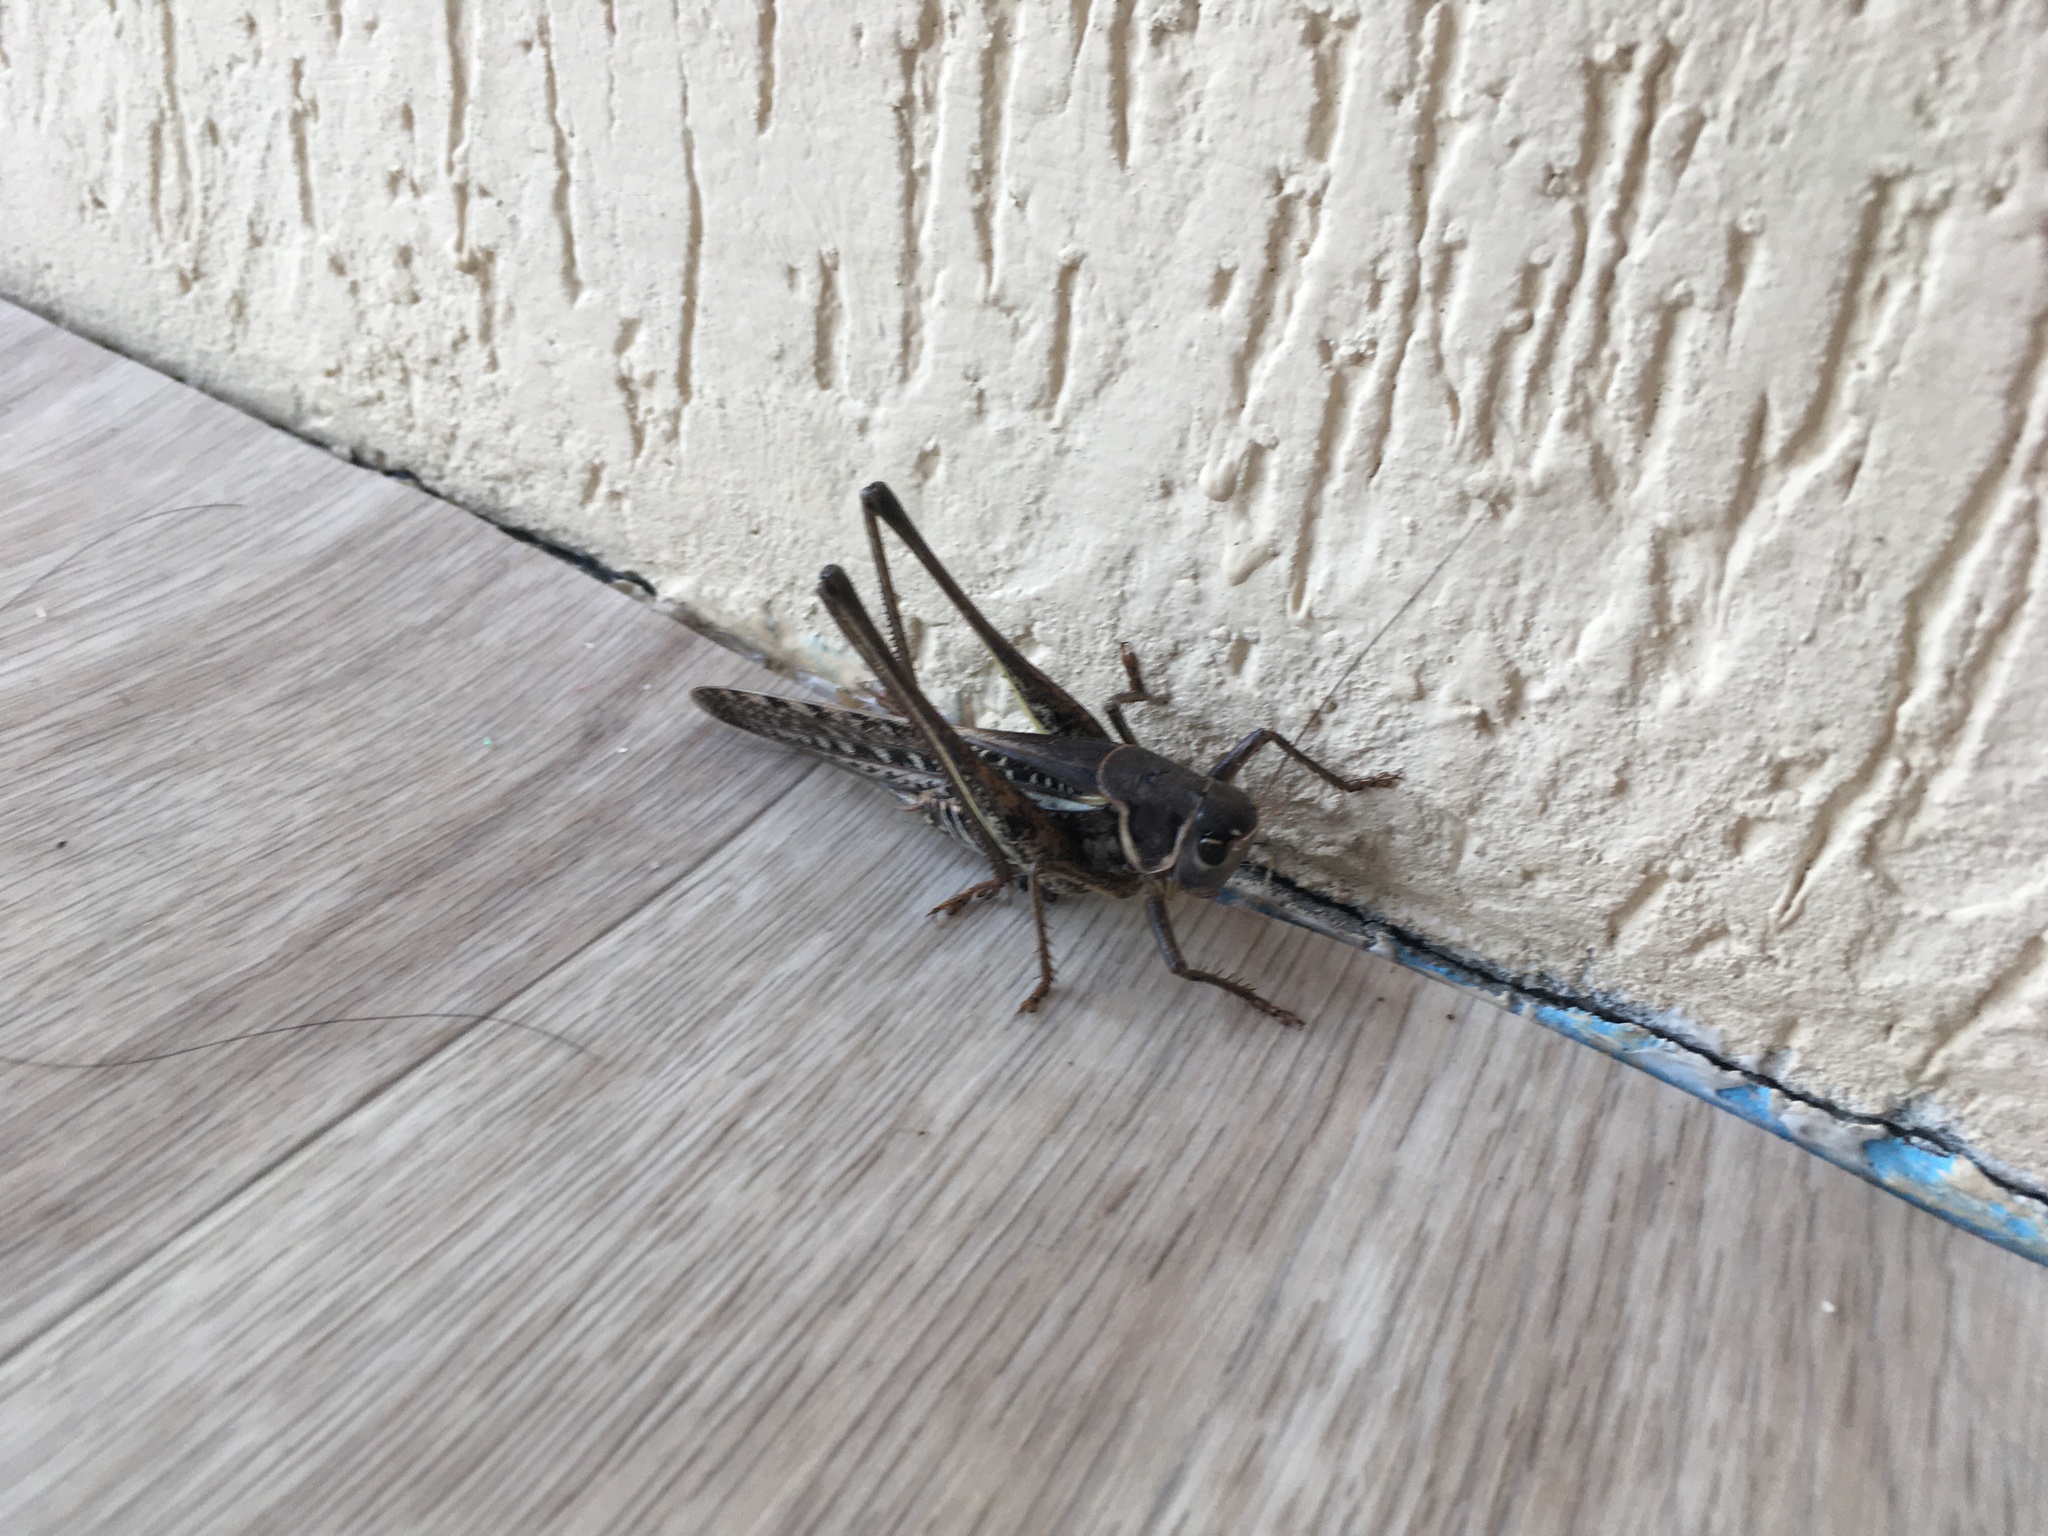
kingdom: Animalia
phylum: Arthropoda
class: Insecta
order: Orthoptera
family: Tettigoniidae
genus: Decticus
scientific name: Decticus albifrons
